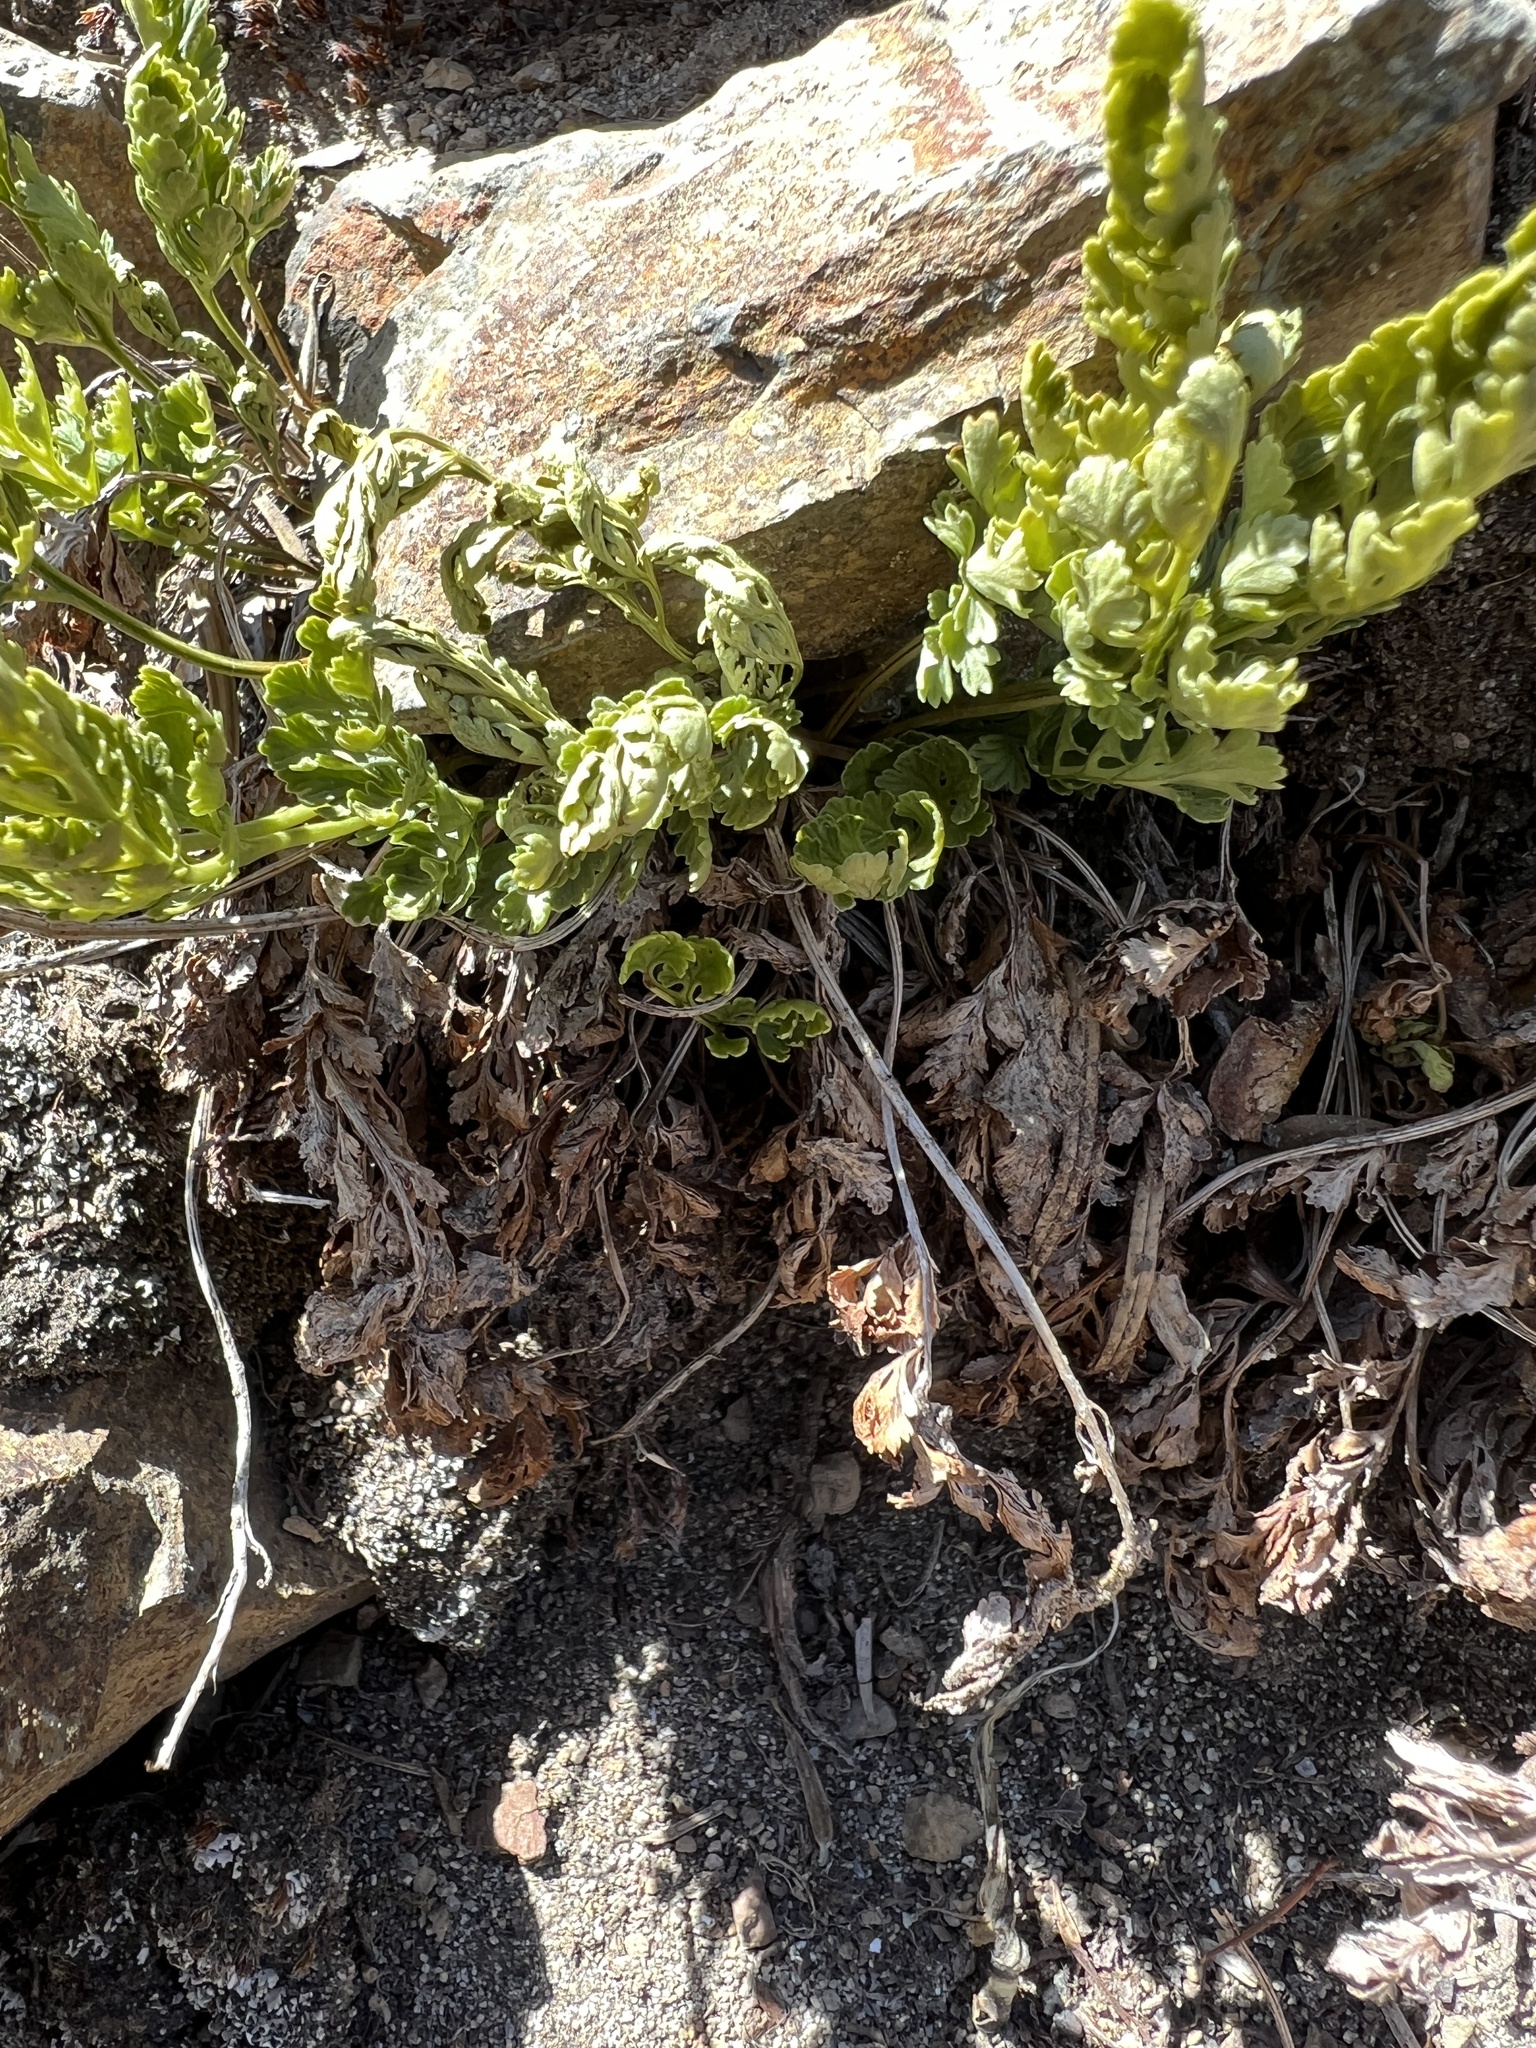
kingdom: Plantae
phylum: Tracheophyta
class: Polypodiopsida
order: Polypodiales
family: Pteridaceae
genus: Cryptogramma
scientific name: Cryptogramma acrostichoides
